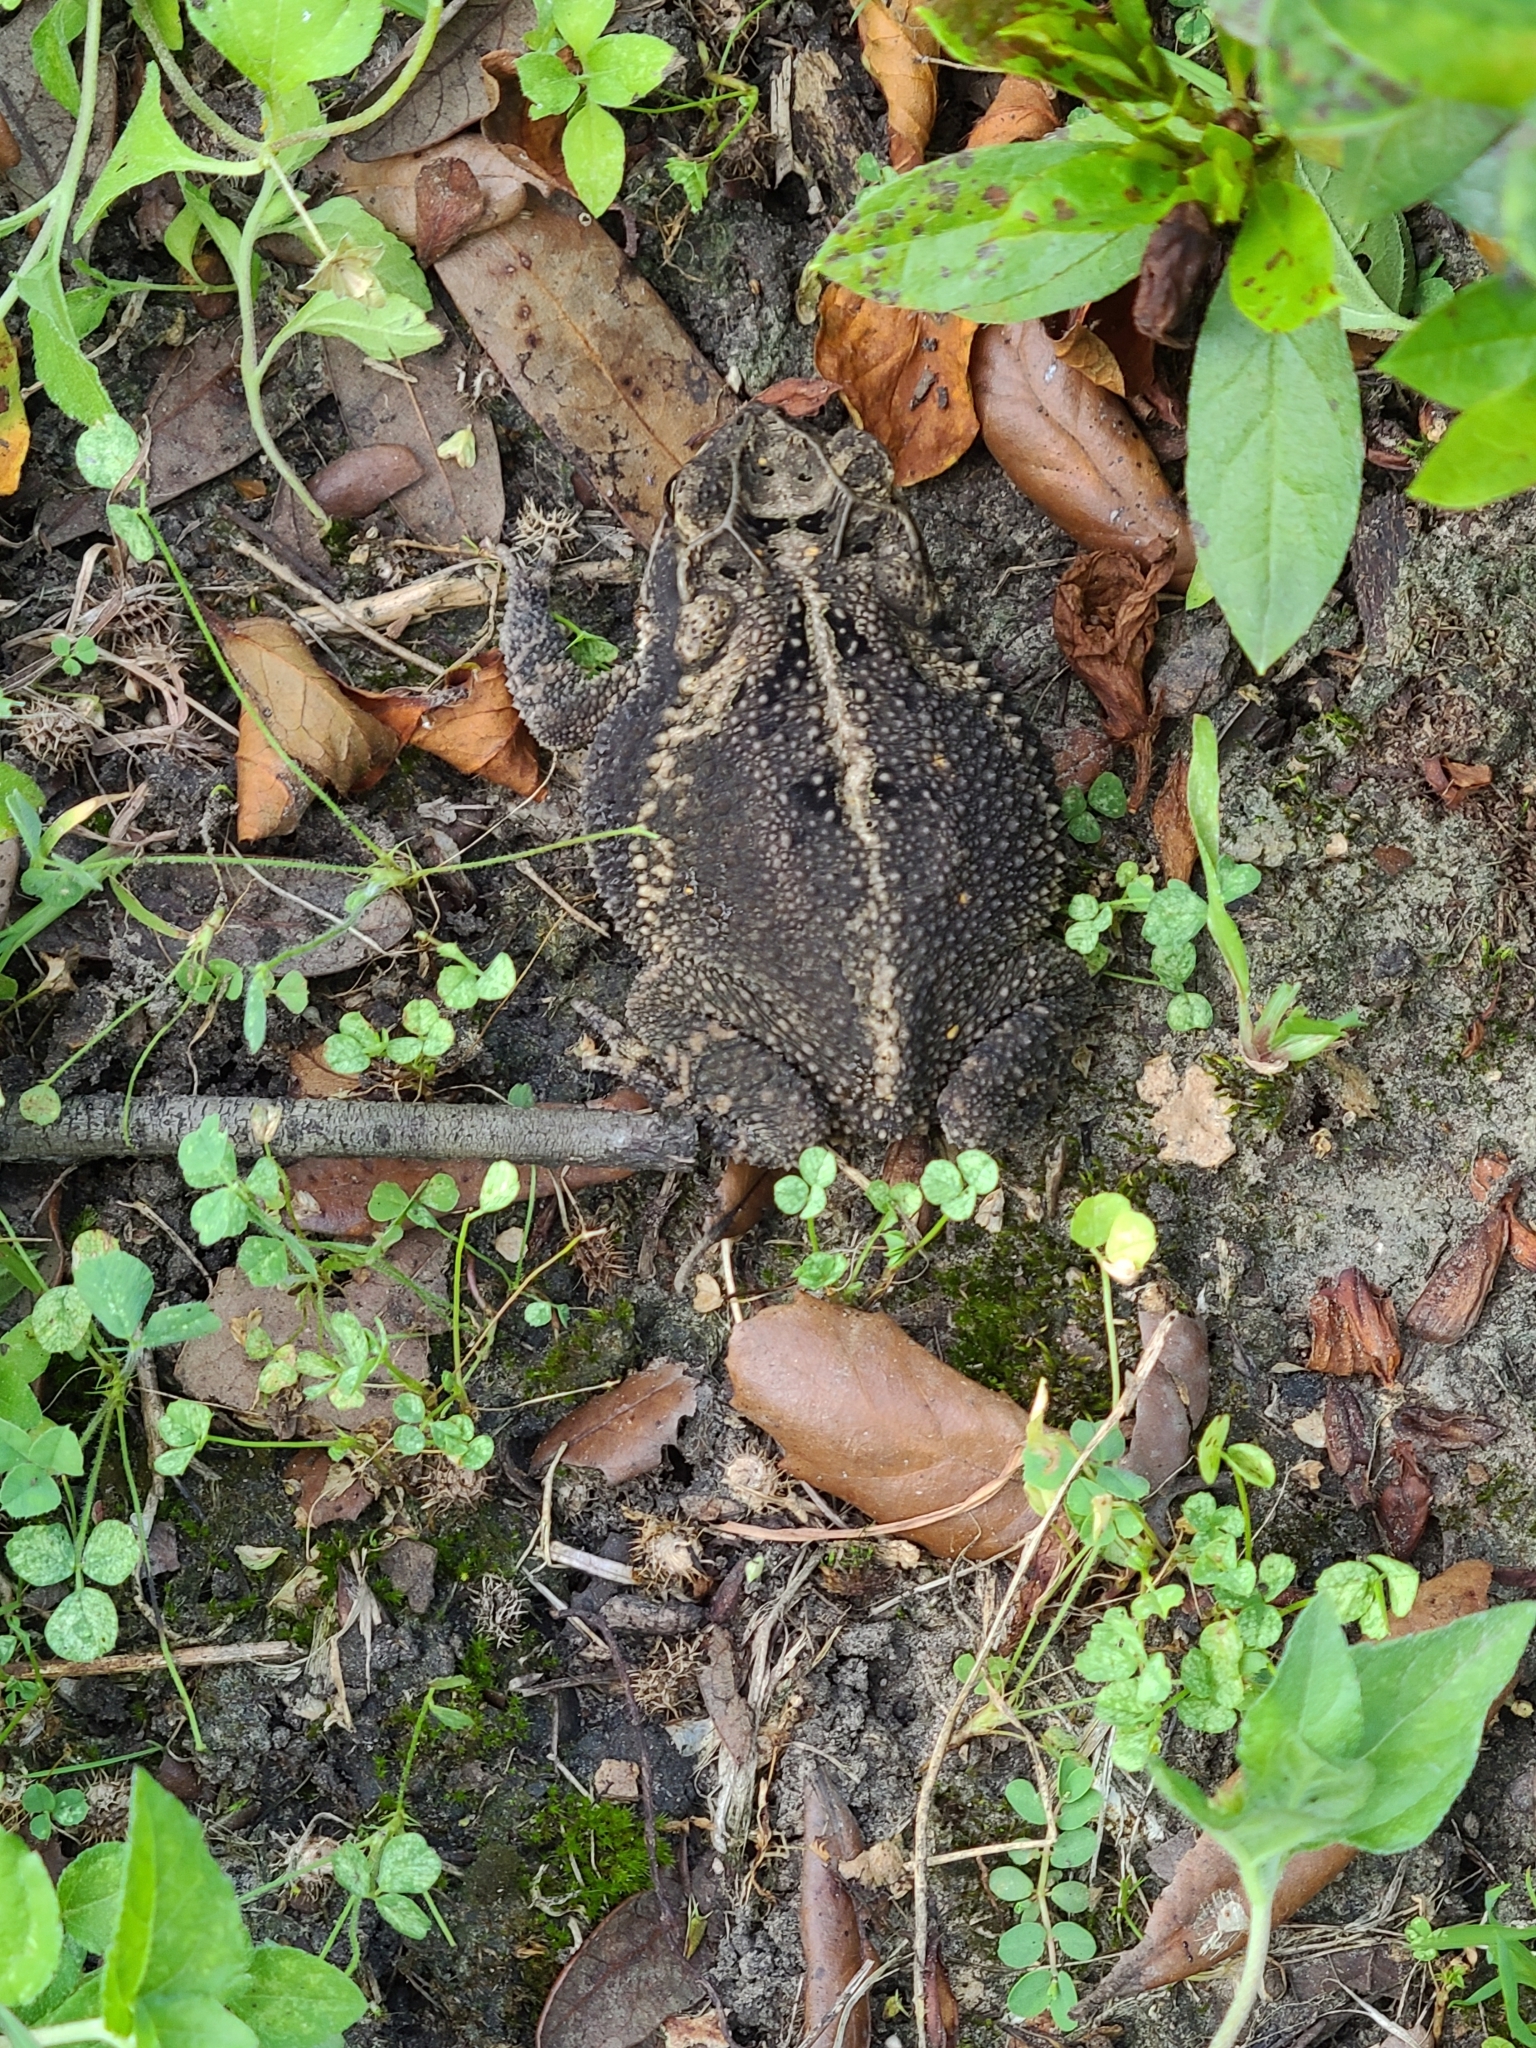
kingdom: Animalia
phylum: Chordata
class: Amphibia
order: Anura
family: Bufonidae
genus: Incilius
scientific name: Incilius nebulifer
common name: Gulf coast toad
